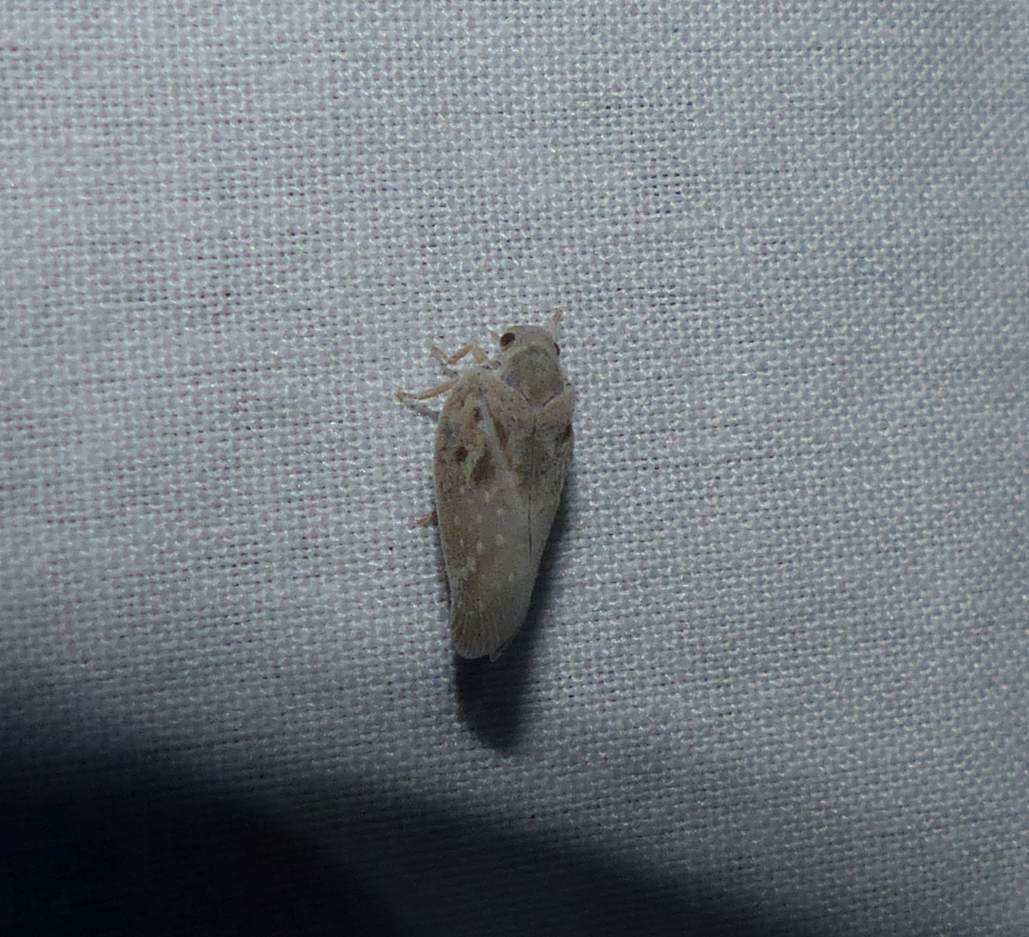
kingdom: Animalia
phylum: Arthropoda
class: Insecta
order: Hemiptera
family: Flatidae
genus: Metcalfa
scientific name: Metcalfa pruinosa
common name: Citrus flatid planthopper
